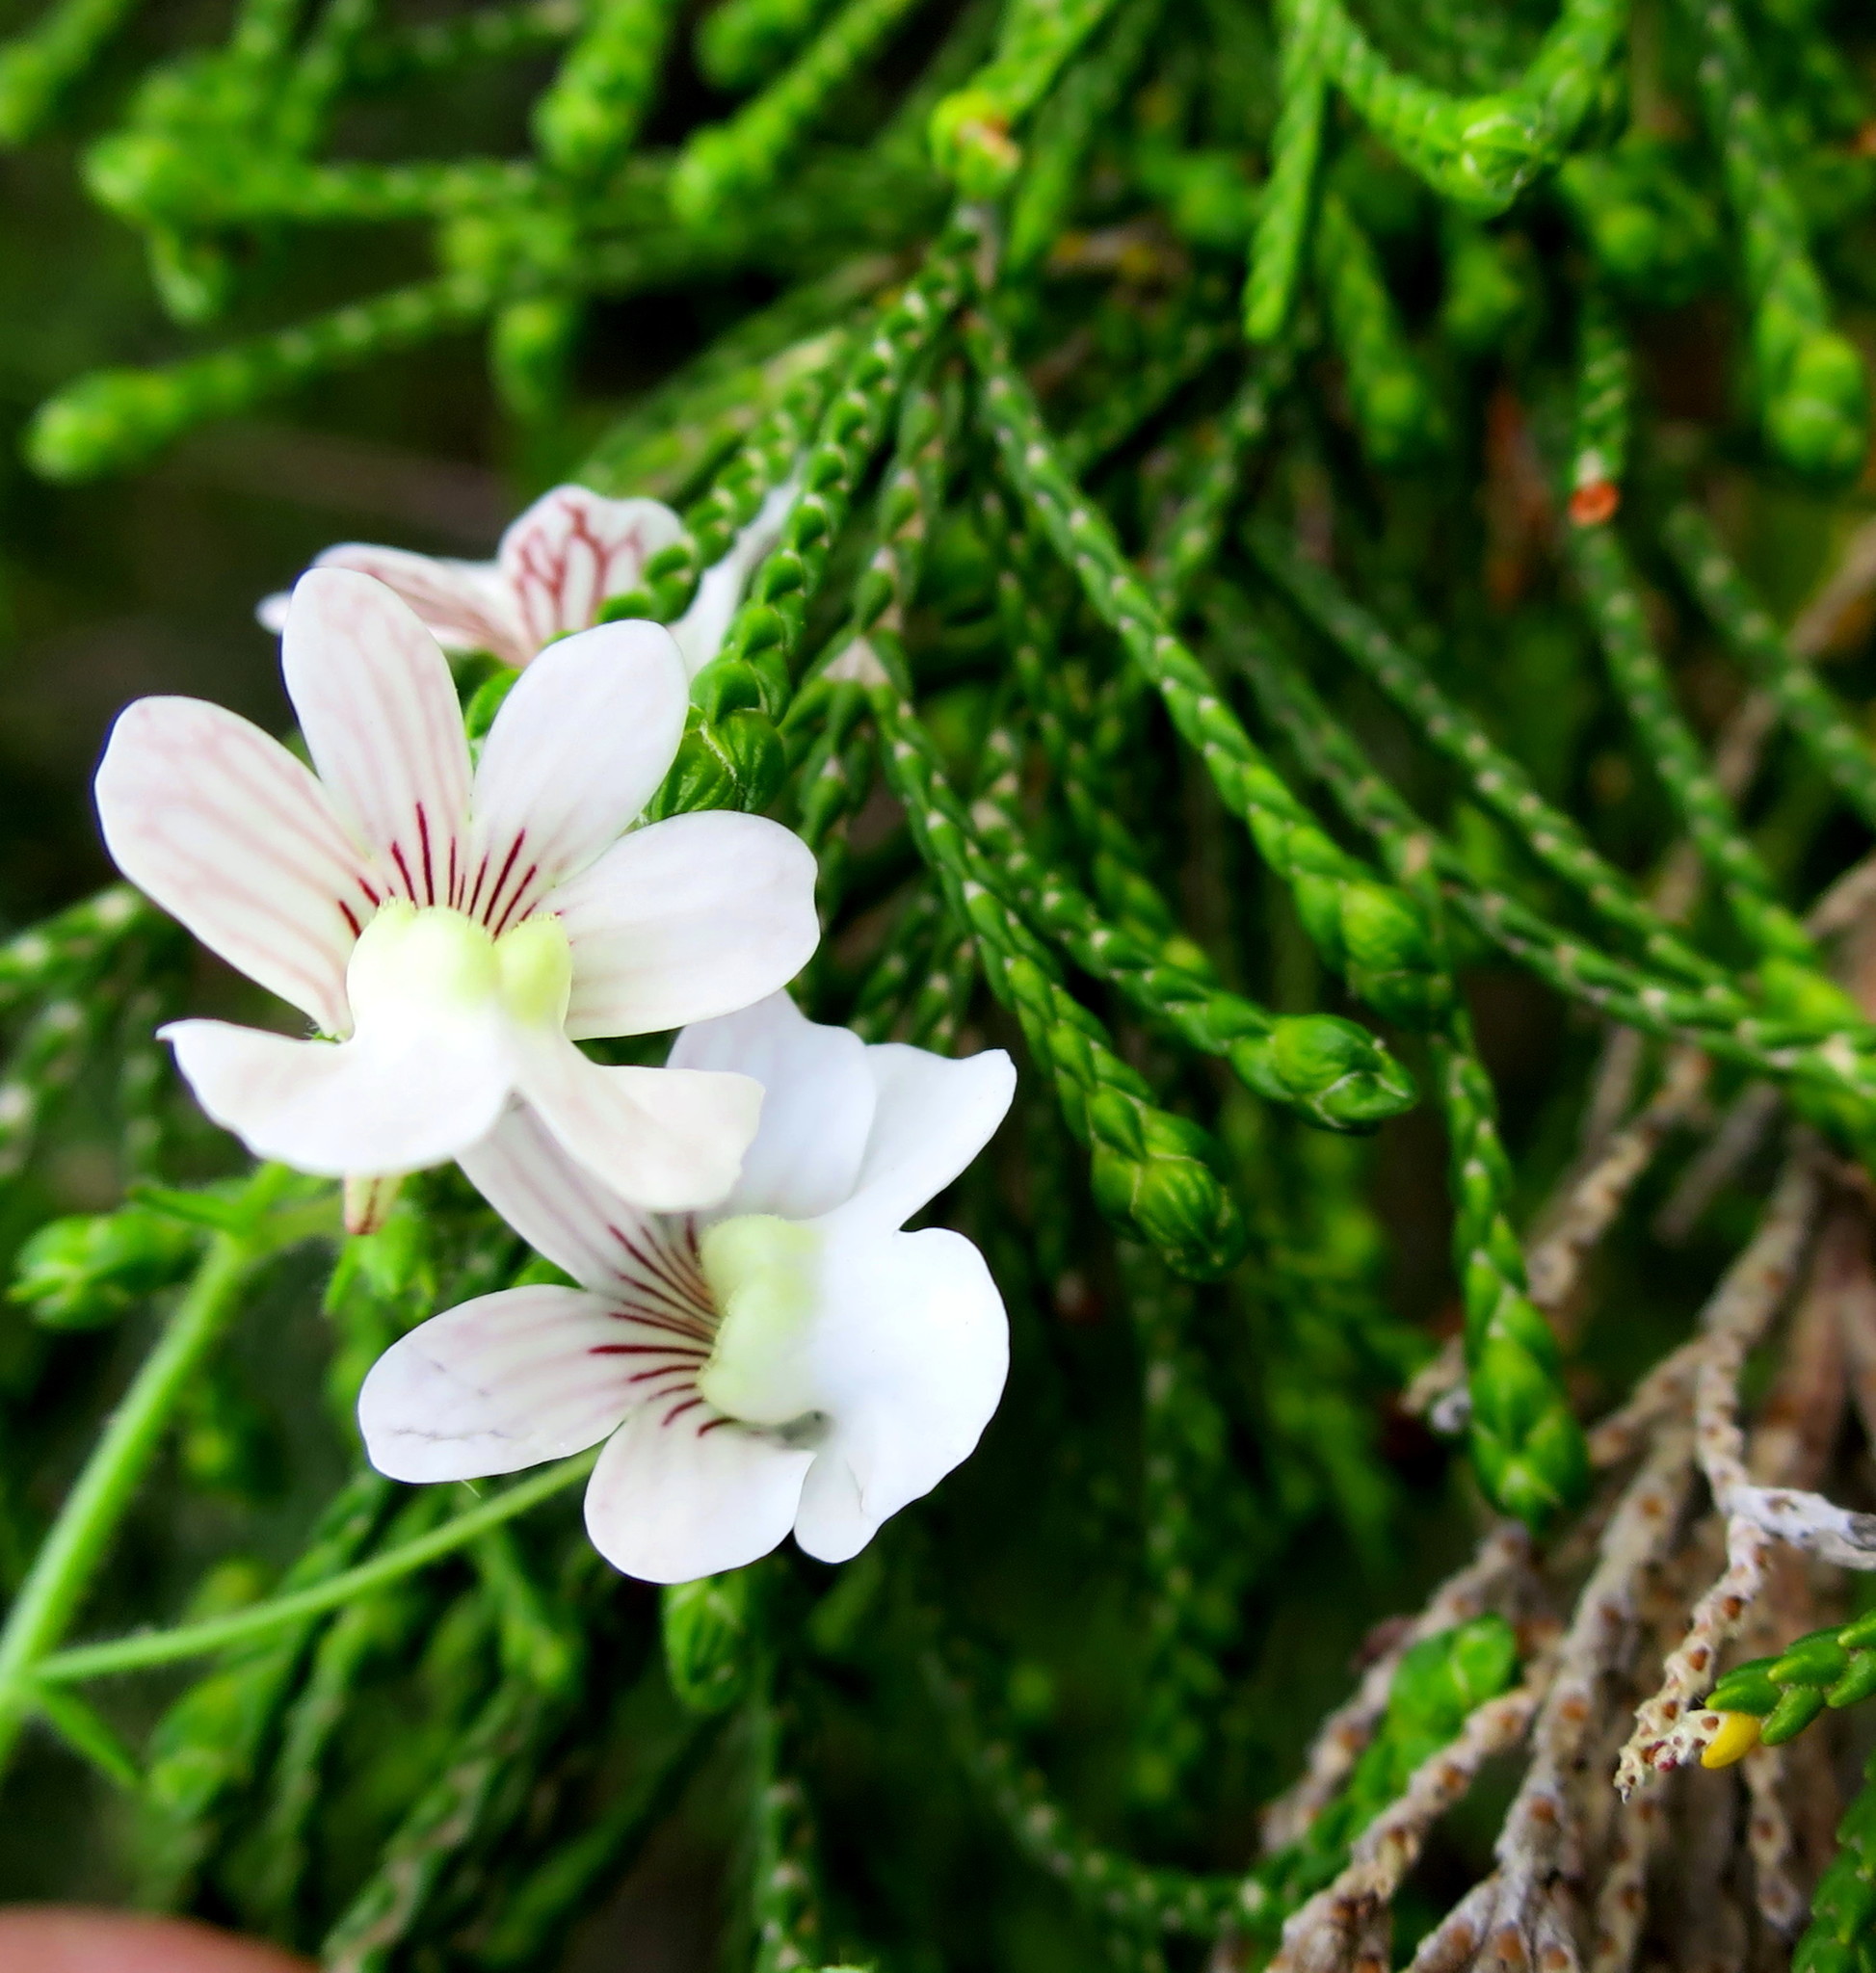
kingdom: Plantae
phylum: Tracheophyta
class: Magnoliopsida
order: Lamiales
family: Scrophulariaceae
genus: Nemesia
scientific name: Nemesia bicornis
